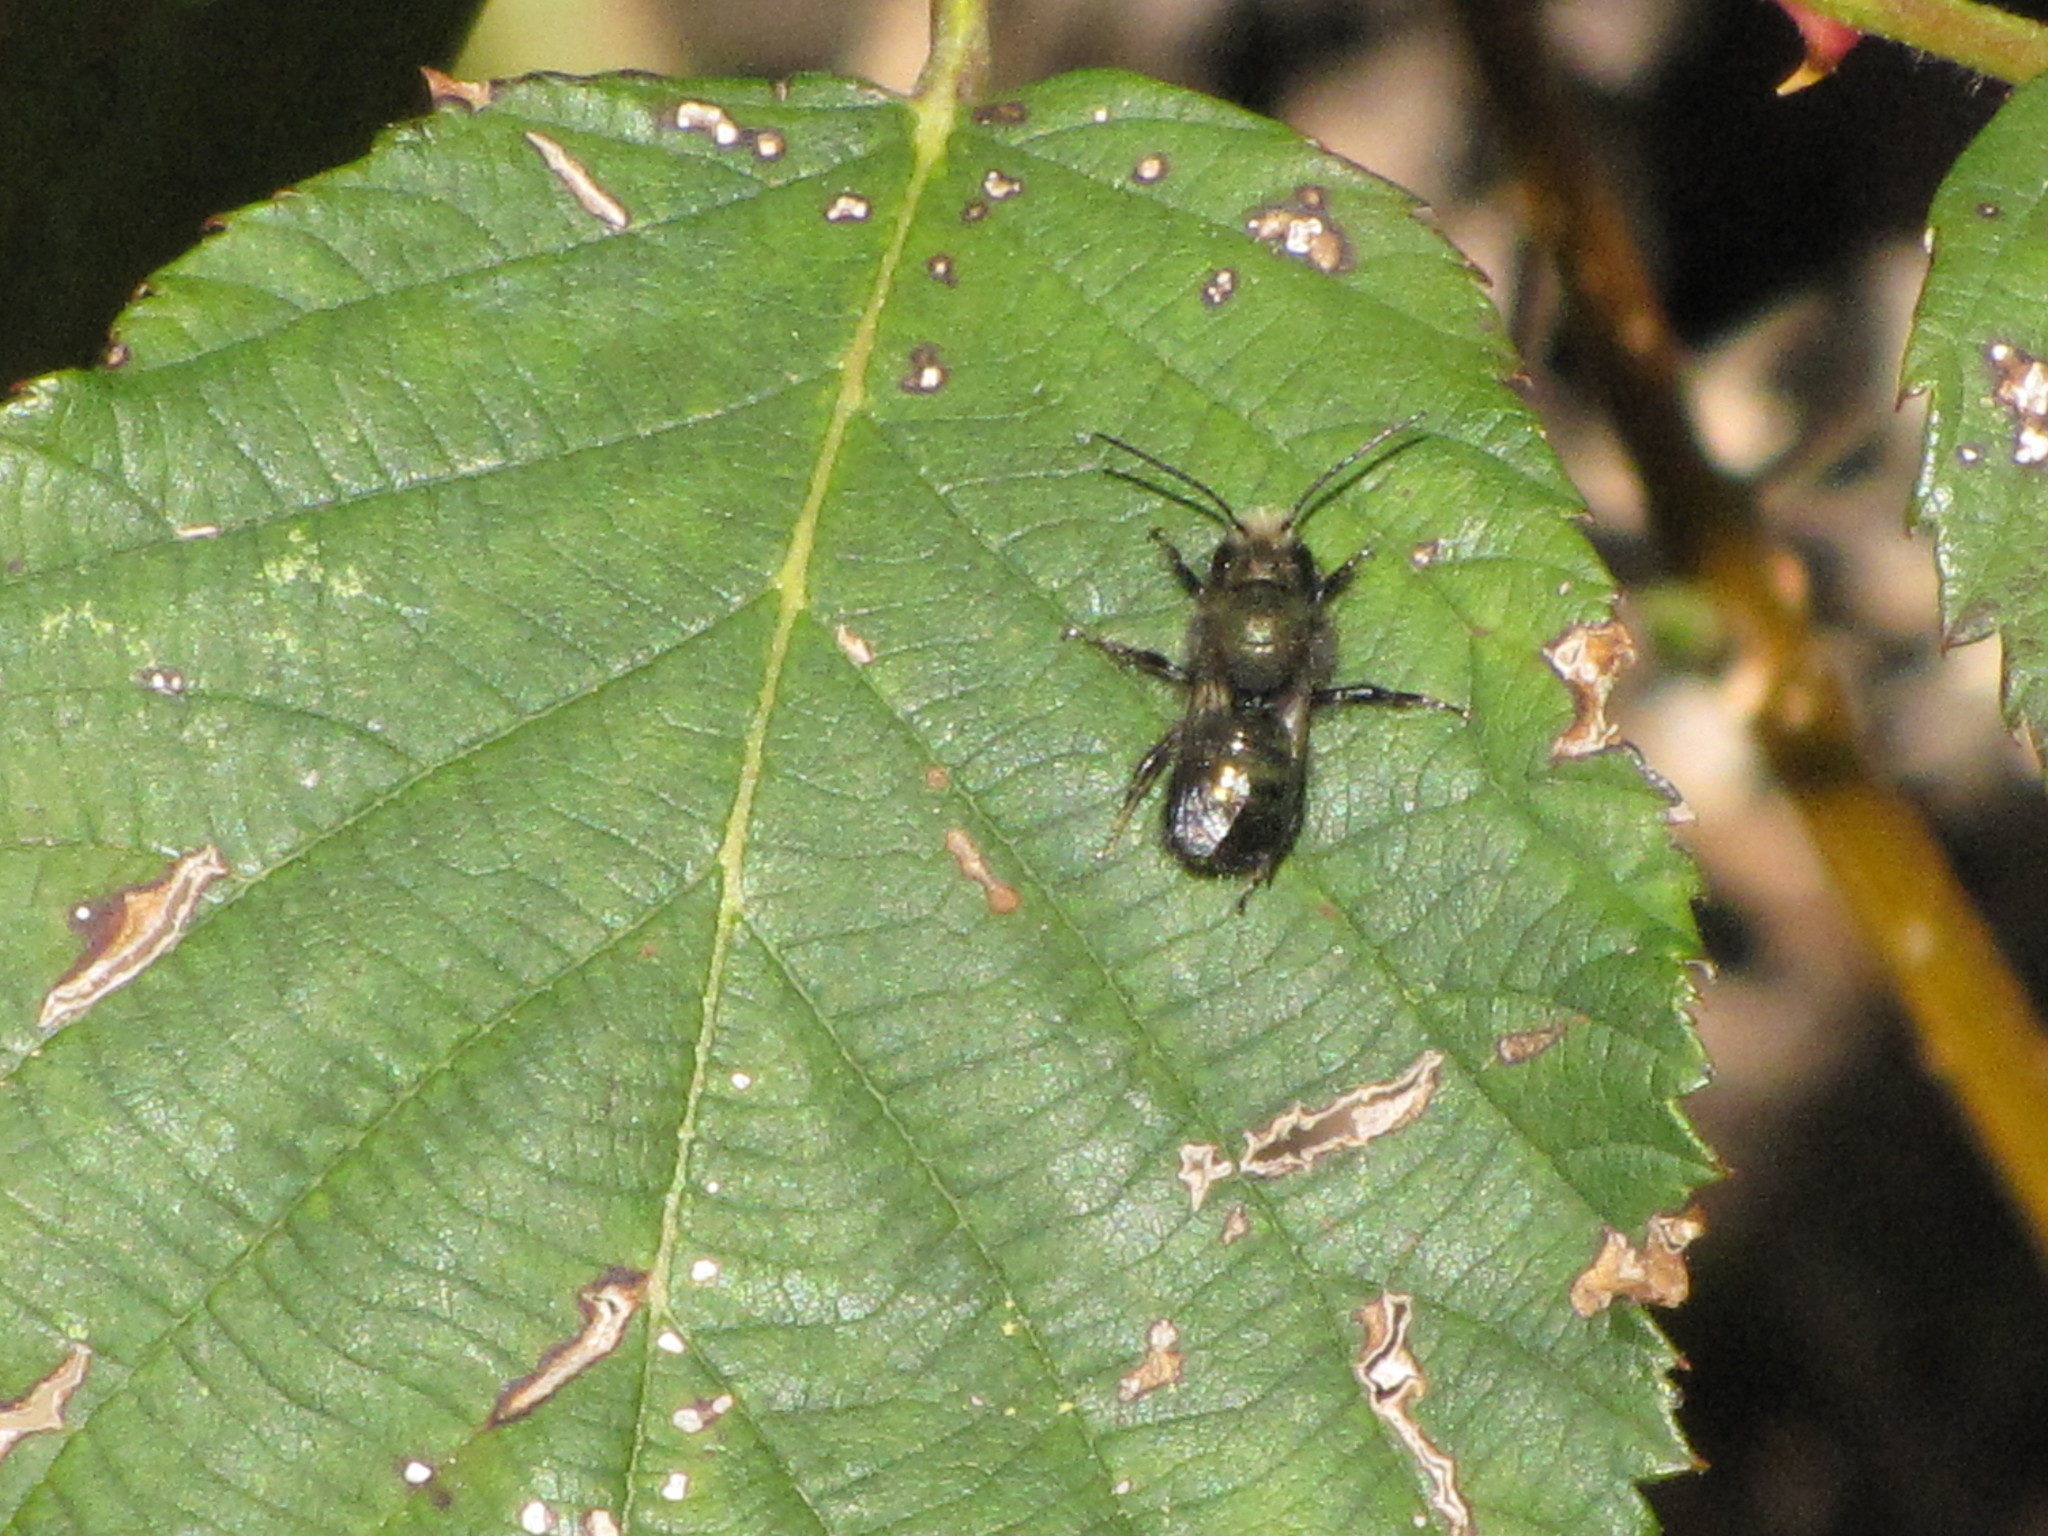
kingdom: Animalia
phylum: Arthropoda
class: Insecta
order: Hymenoptera
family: Megachilidae
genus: Osmia
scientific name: Osmia lignaria
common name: Blue orchard bee
